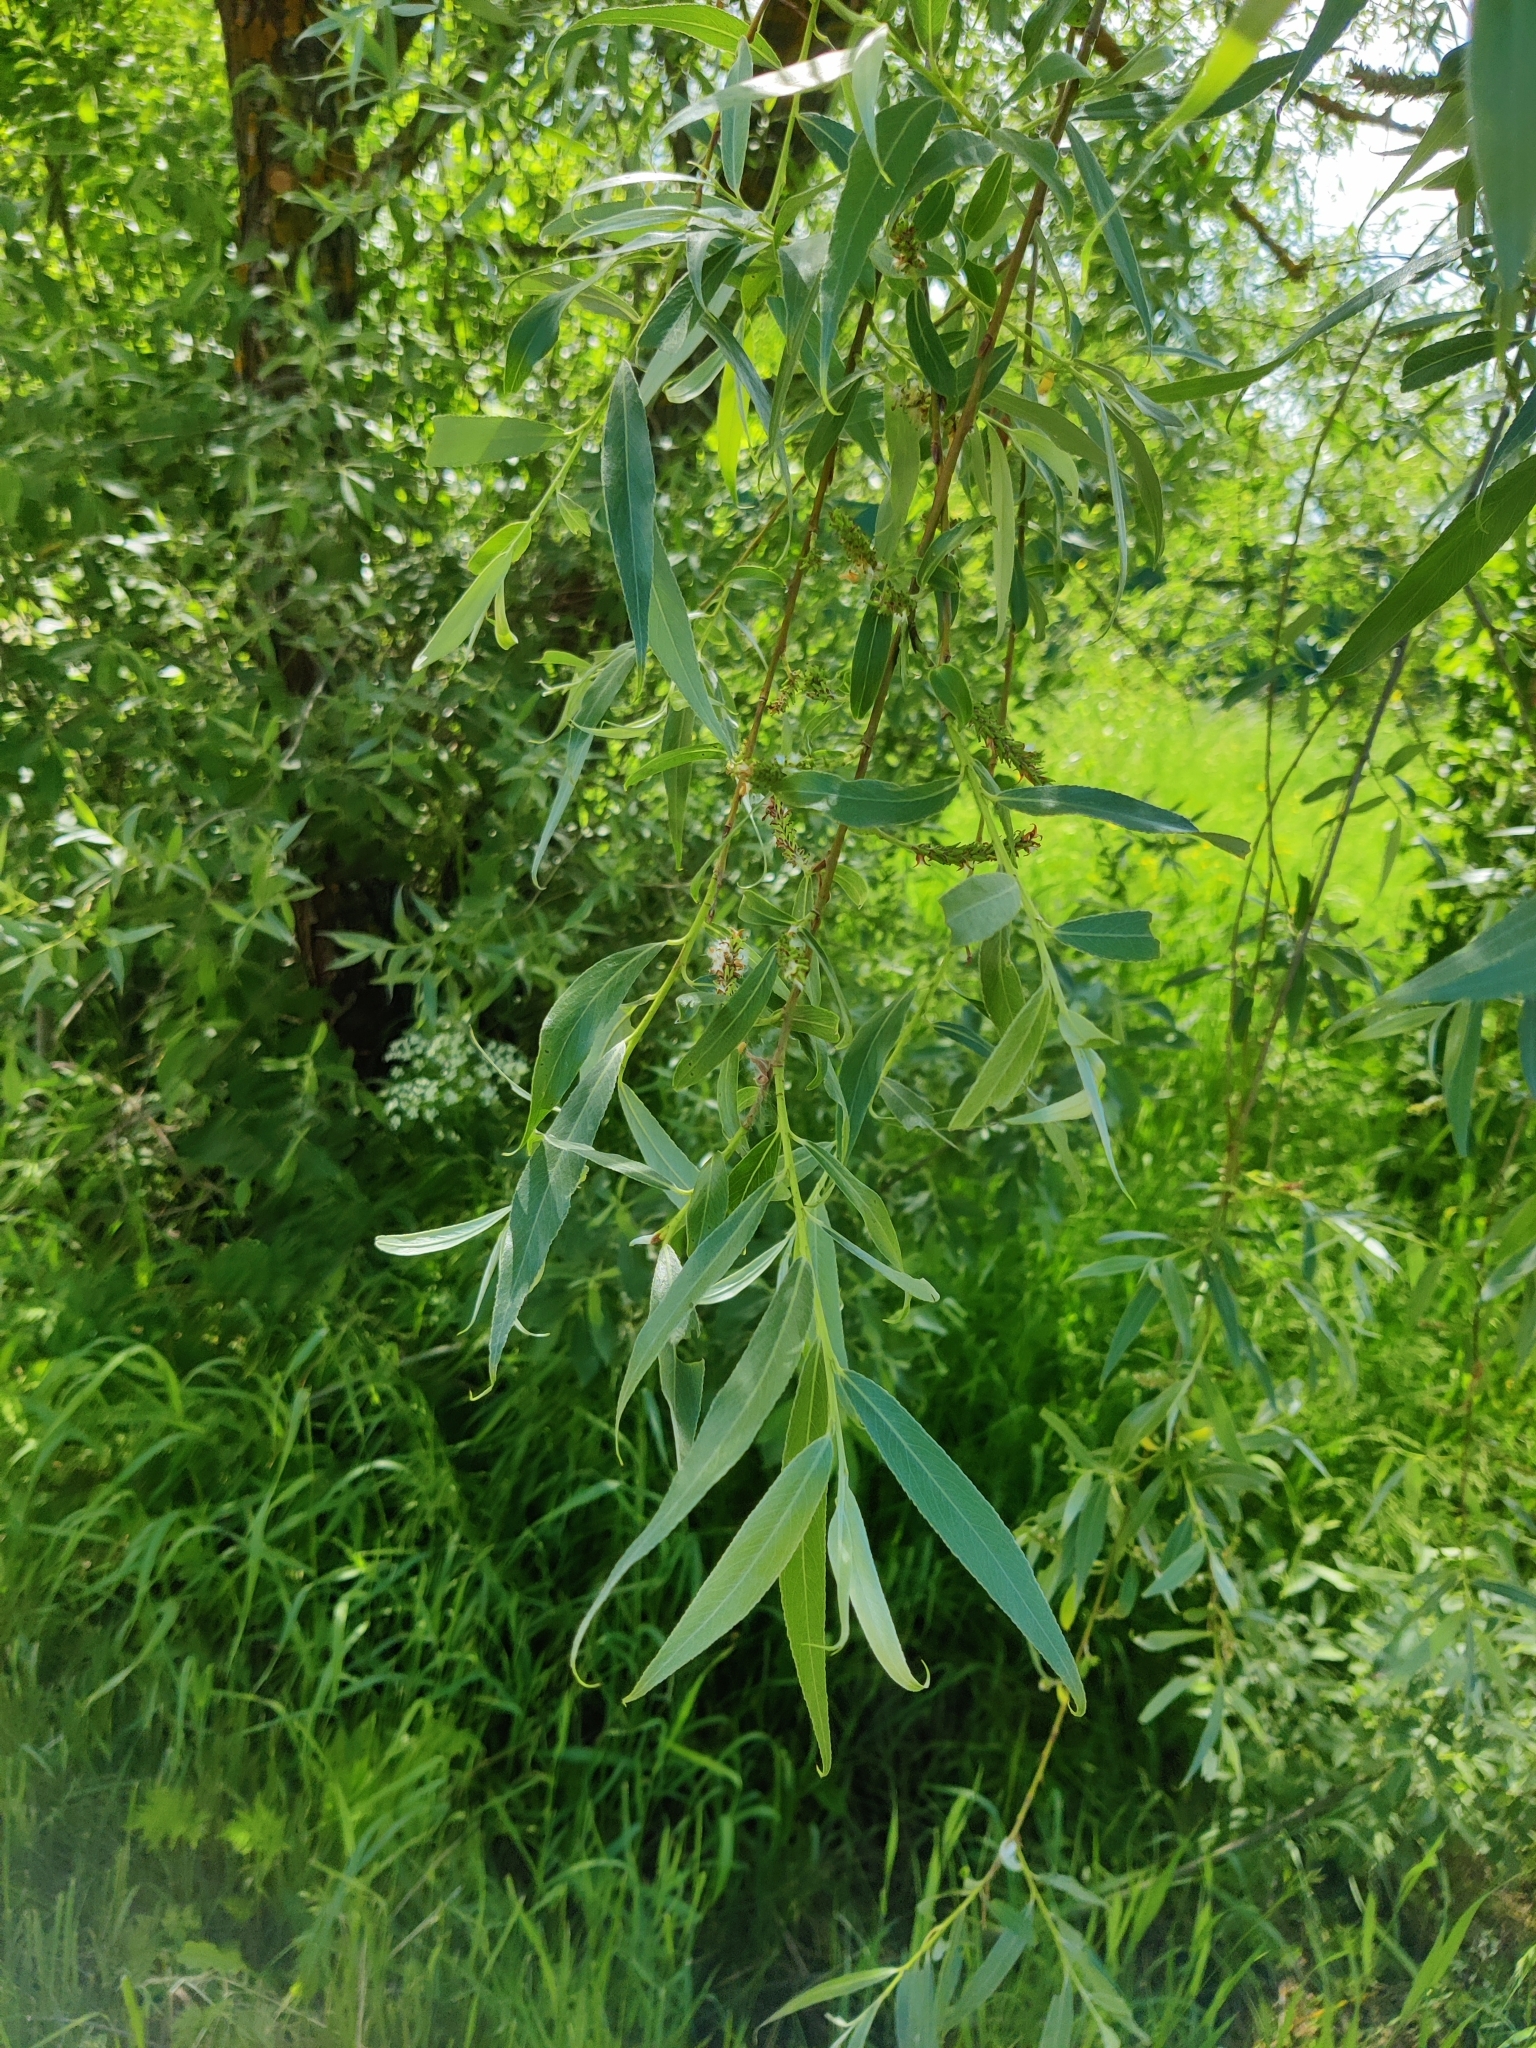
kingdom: Plantae
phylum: Tracheophyta
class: Magnoliopsida
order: Malpighiales
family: Salicaceae
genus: Salix
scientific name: Salix alba
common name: White willow
